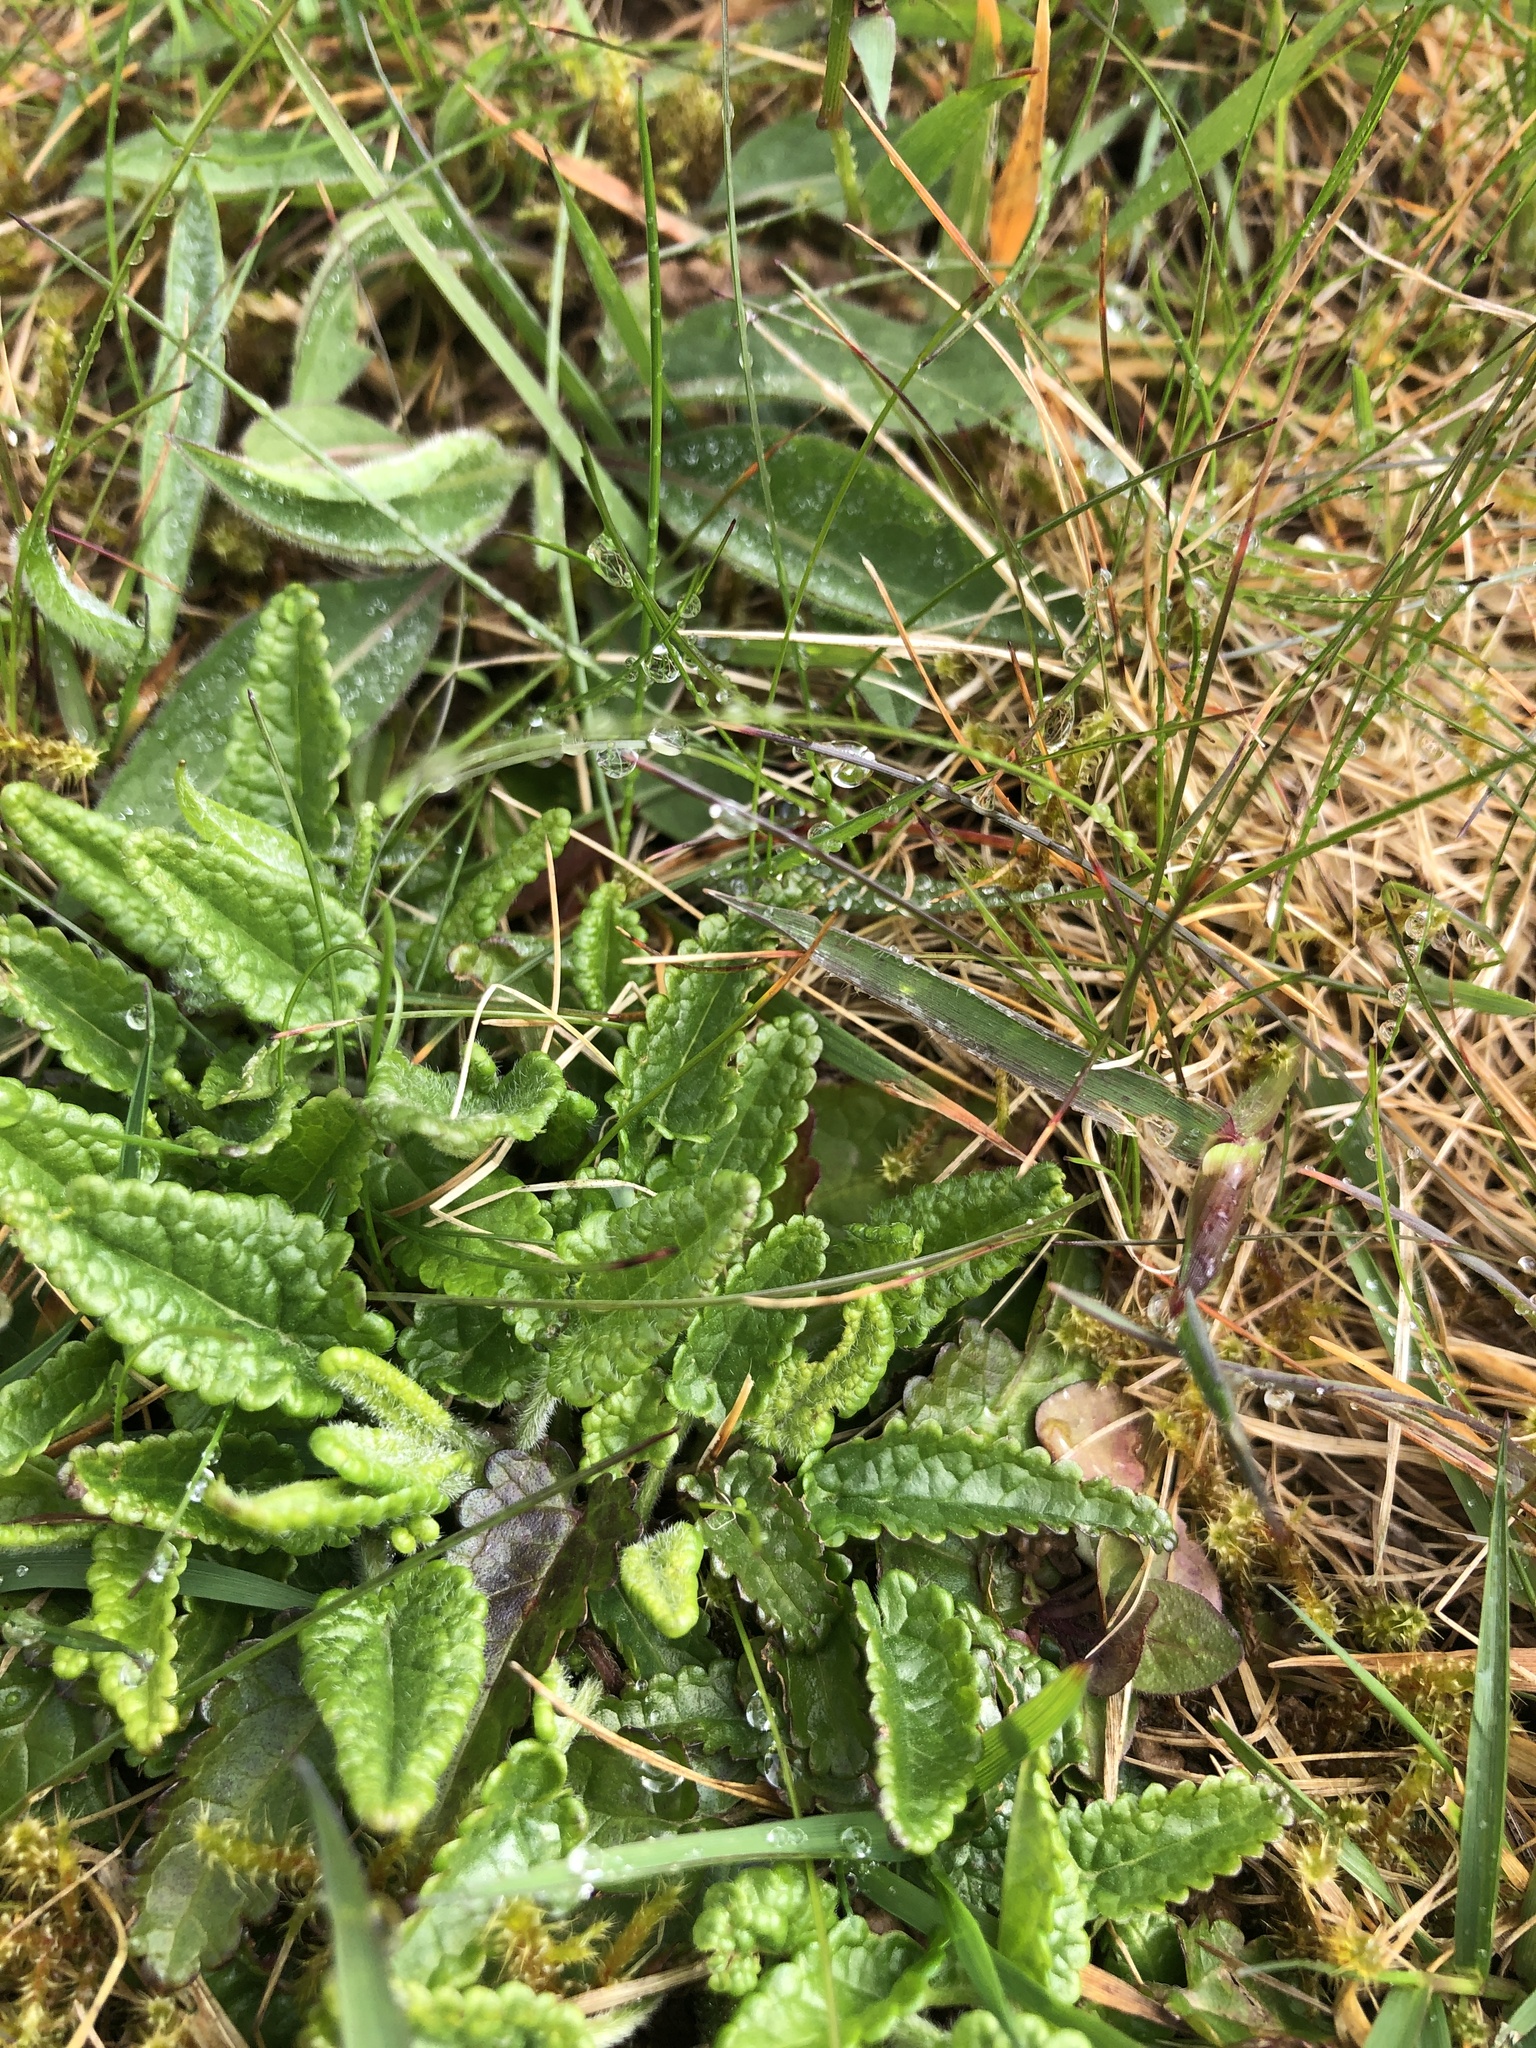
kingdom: Plantae
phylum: Tracheophyta
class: Magnoliopsida
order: Lamiales
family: Lamiaceae
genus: Betonica
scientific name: Betonica officinalis
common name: Bishop's-wort
